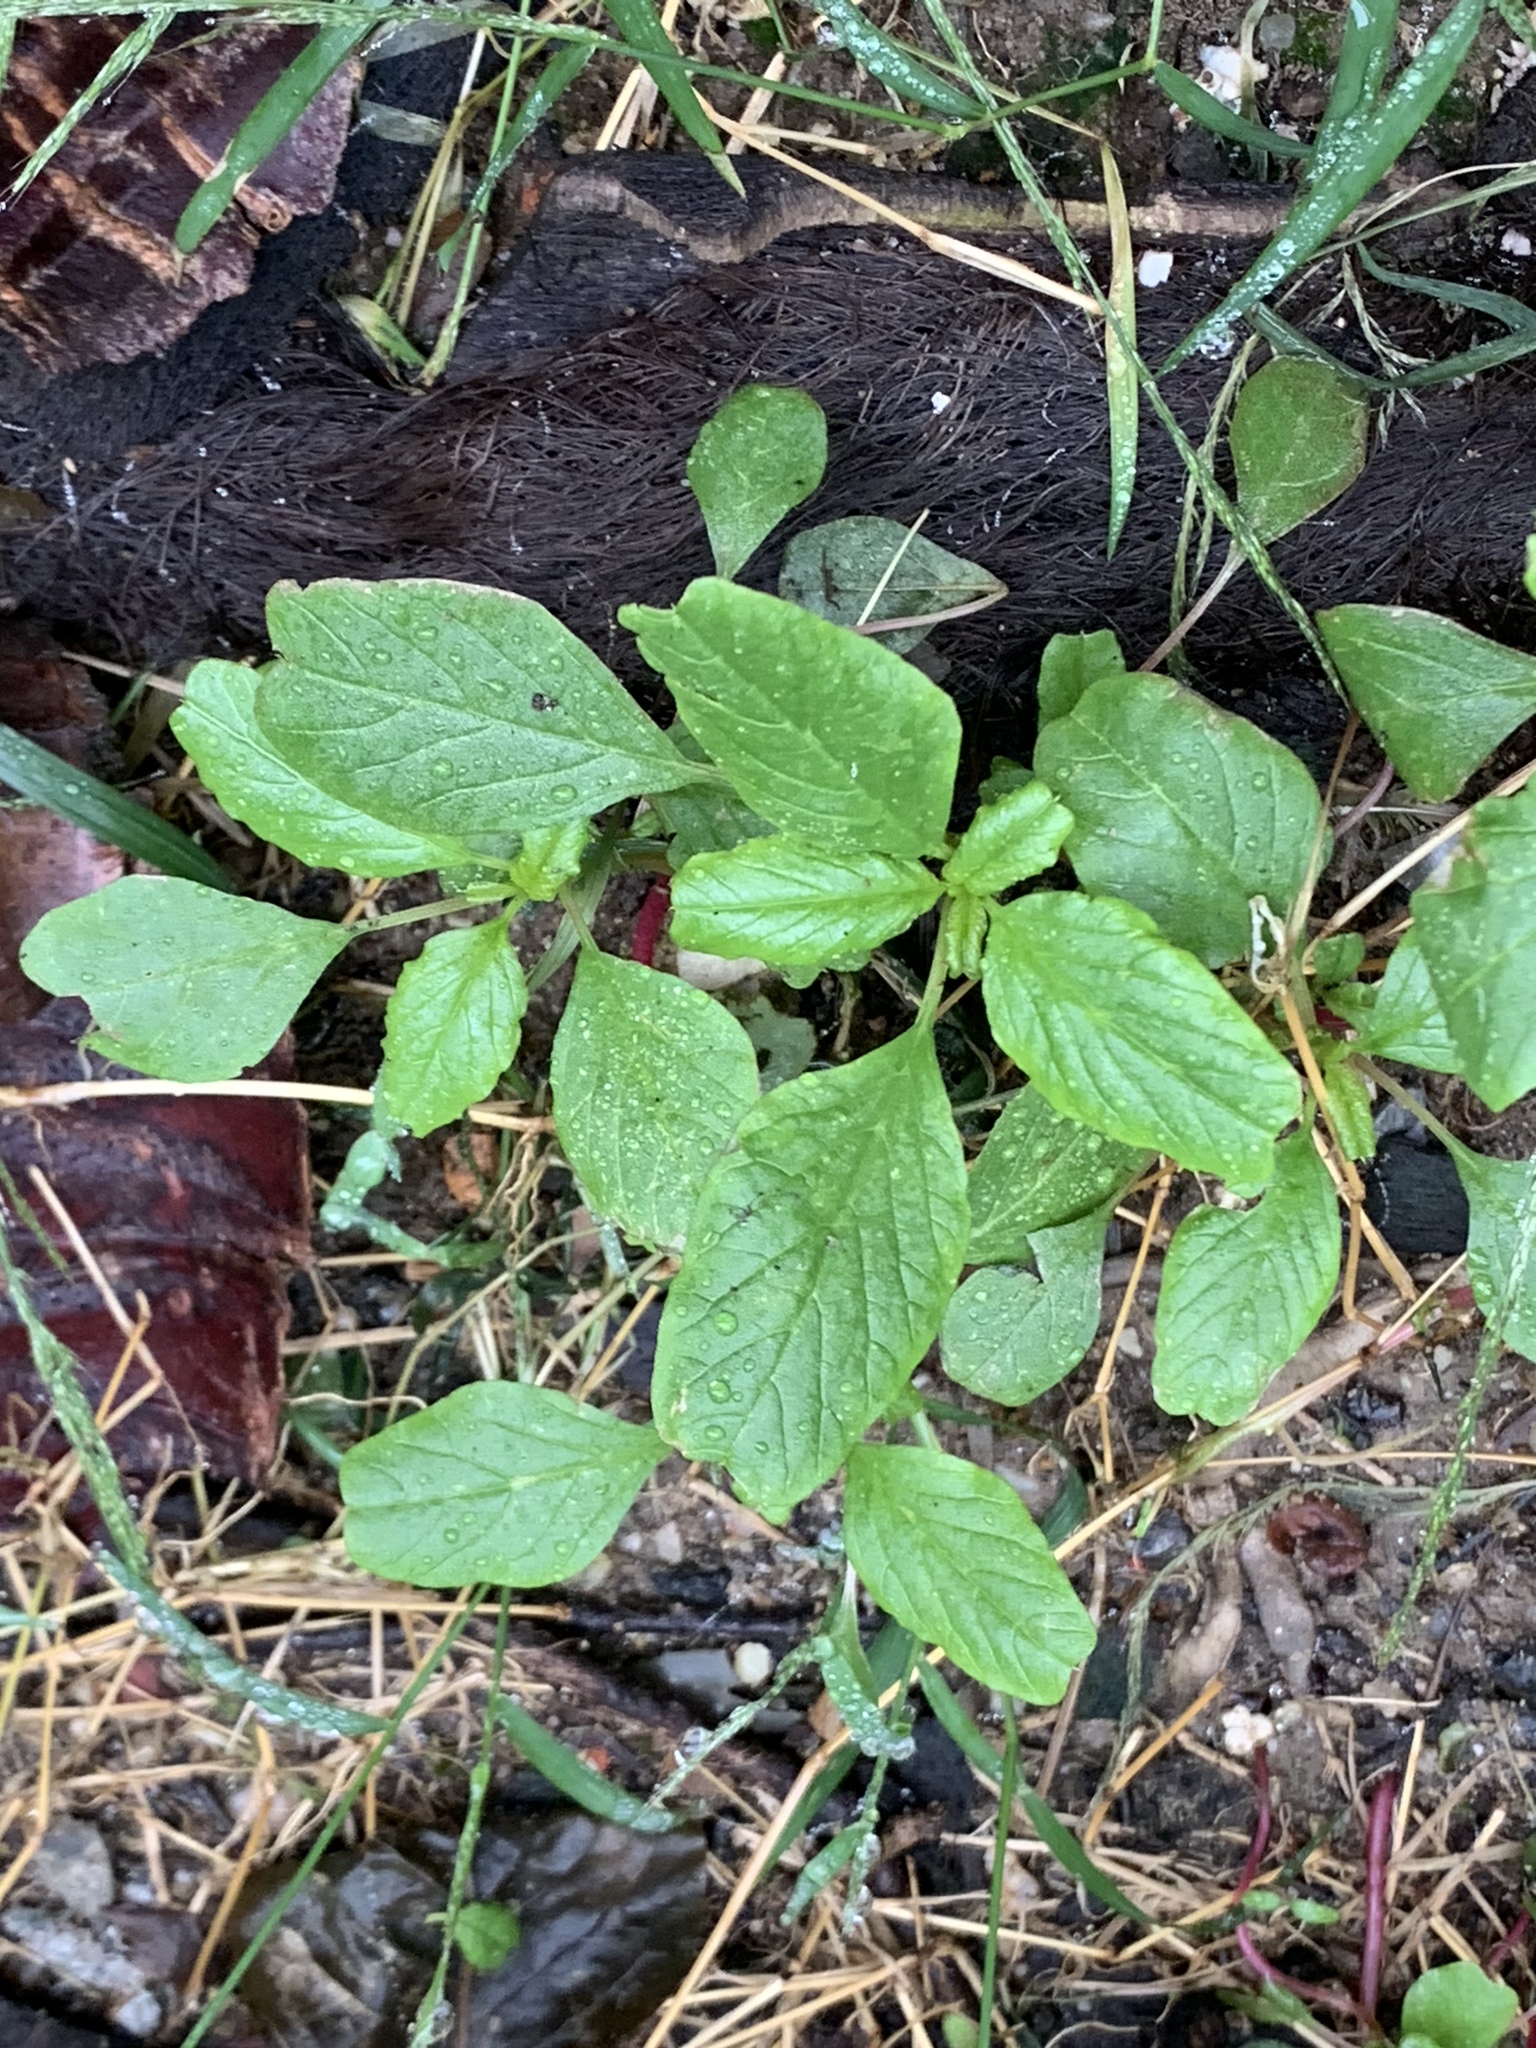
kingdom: Plantae
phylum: Tracheophyta
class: Magnoliopsida
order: Caryophyllales
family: Amaranthaceae
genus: Amaranthus
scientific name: Amaranthus blitum
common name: Purple amaranth
